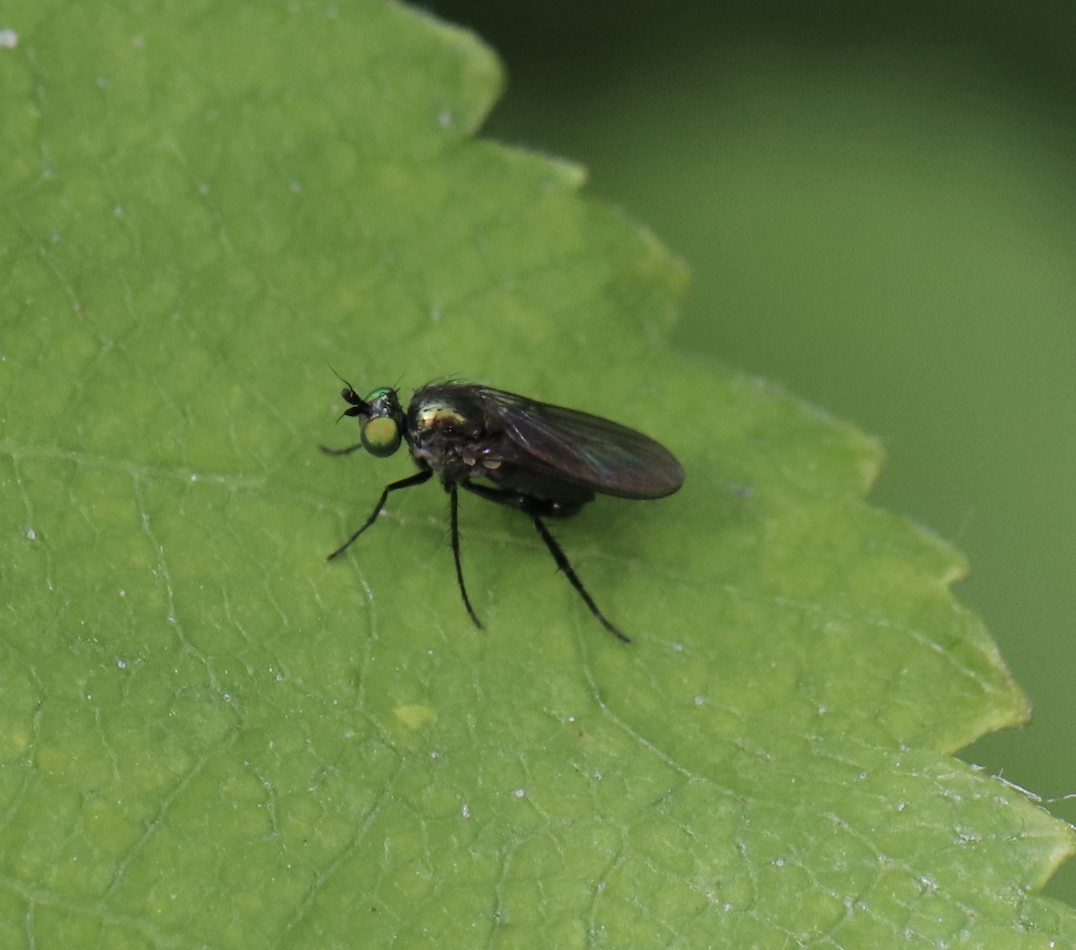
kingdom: Animalia
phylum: Arthropoda
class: Insecta
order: Diptera
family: Dolichopodidae
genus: Hercostomus
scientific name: Hercostomus unicolor
